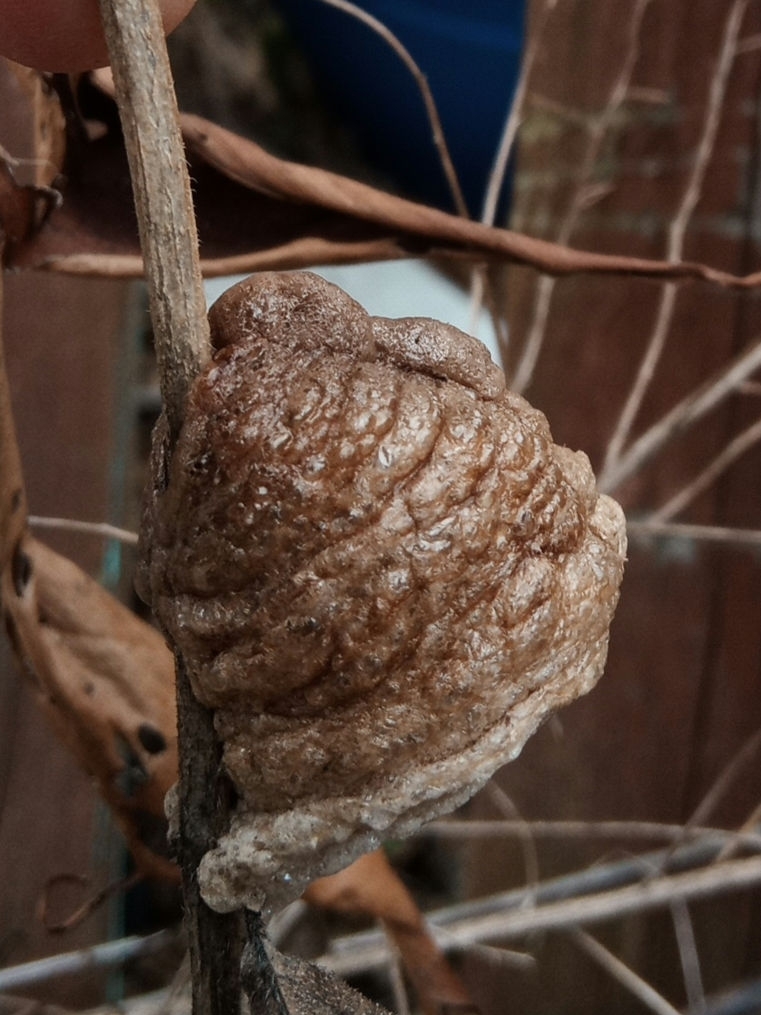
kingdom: Animalia
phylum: Arthropoda
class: Insecta
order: Mantodea
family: Mantidae
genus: Tenodera
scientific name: Tenodera sinensis
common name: Chinese mantis
